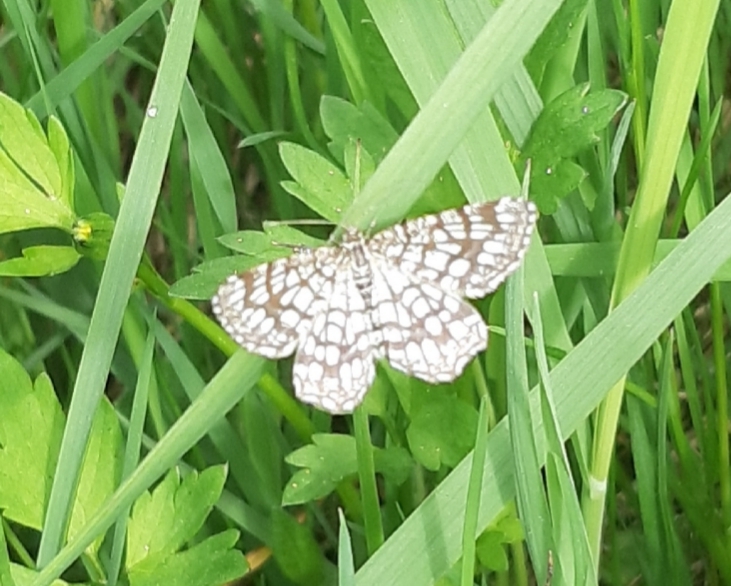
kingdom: Animalia
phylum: Arthropoda
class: Insecta
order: Lepidoptera
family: Geometridae
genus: Chiasmia
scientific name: Chiasmia clathrata
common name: Latticed heath
